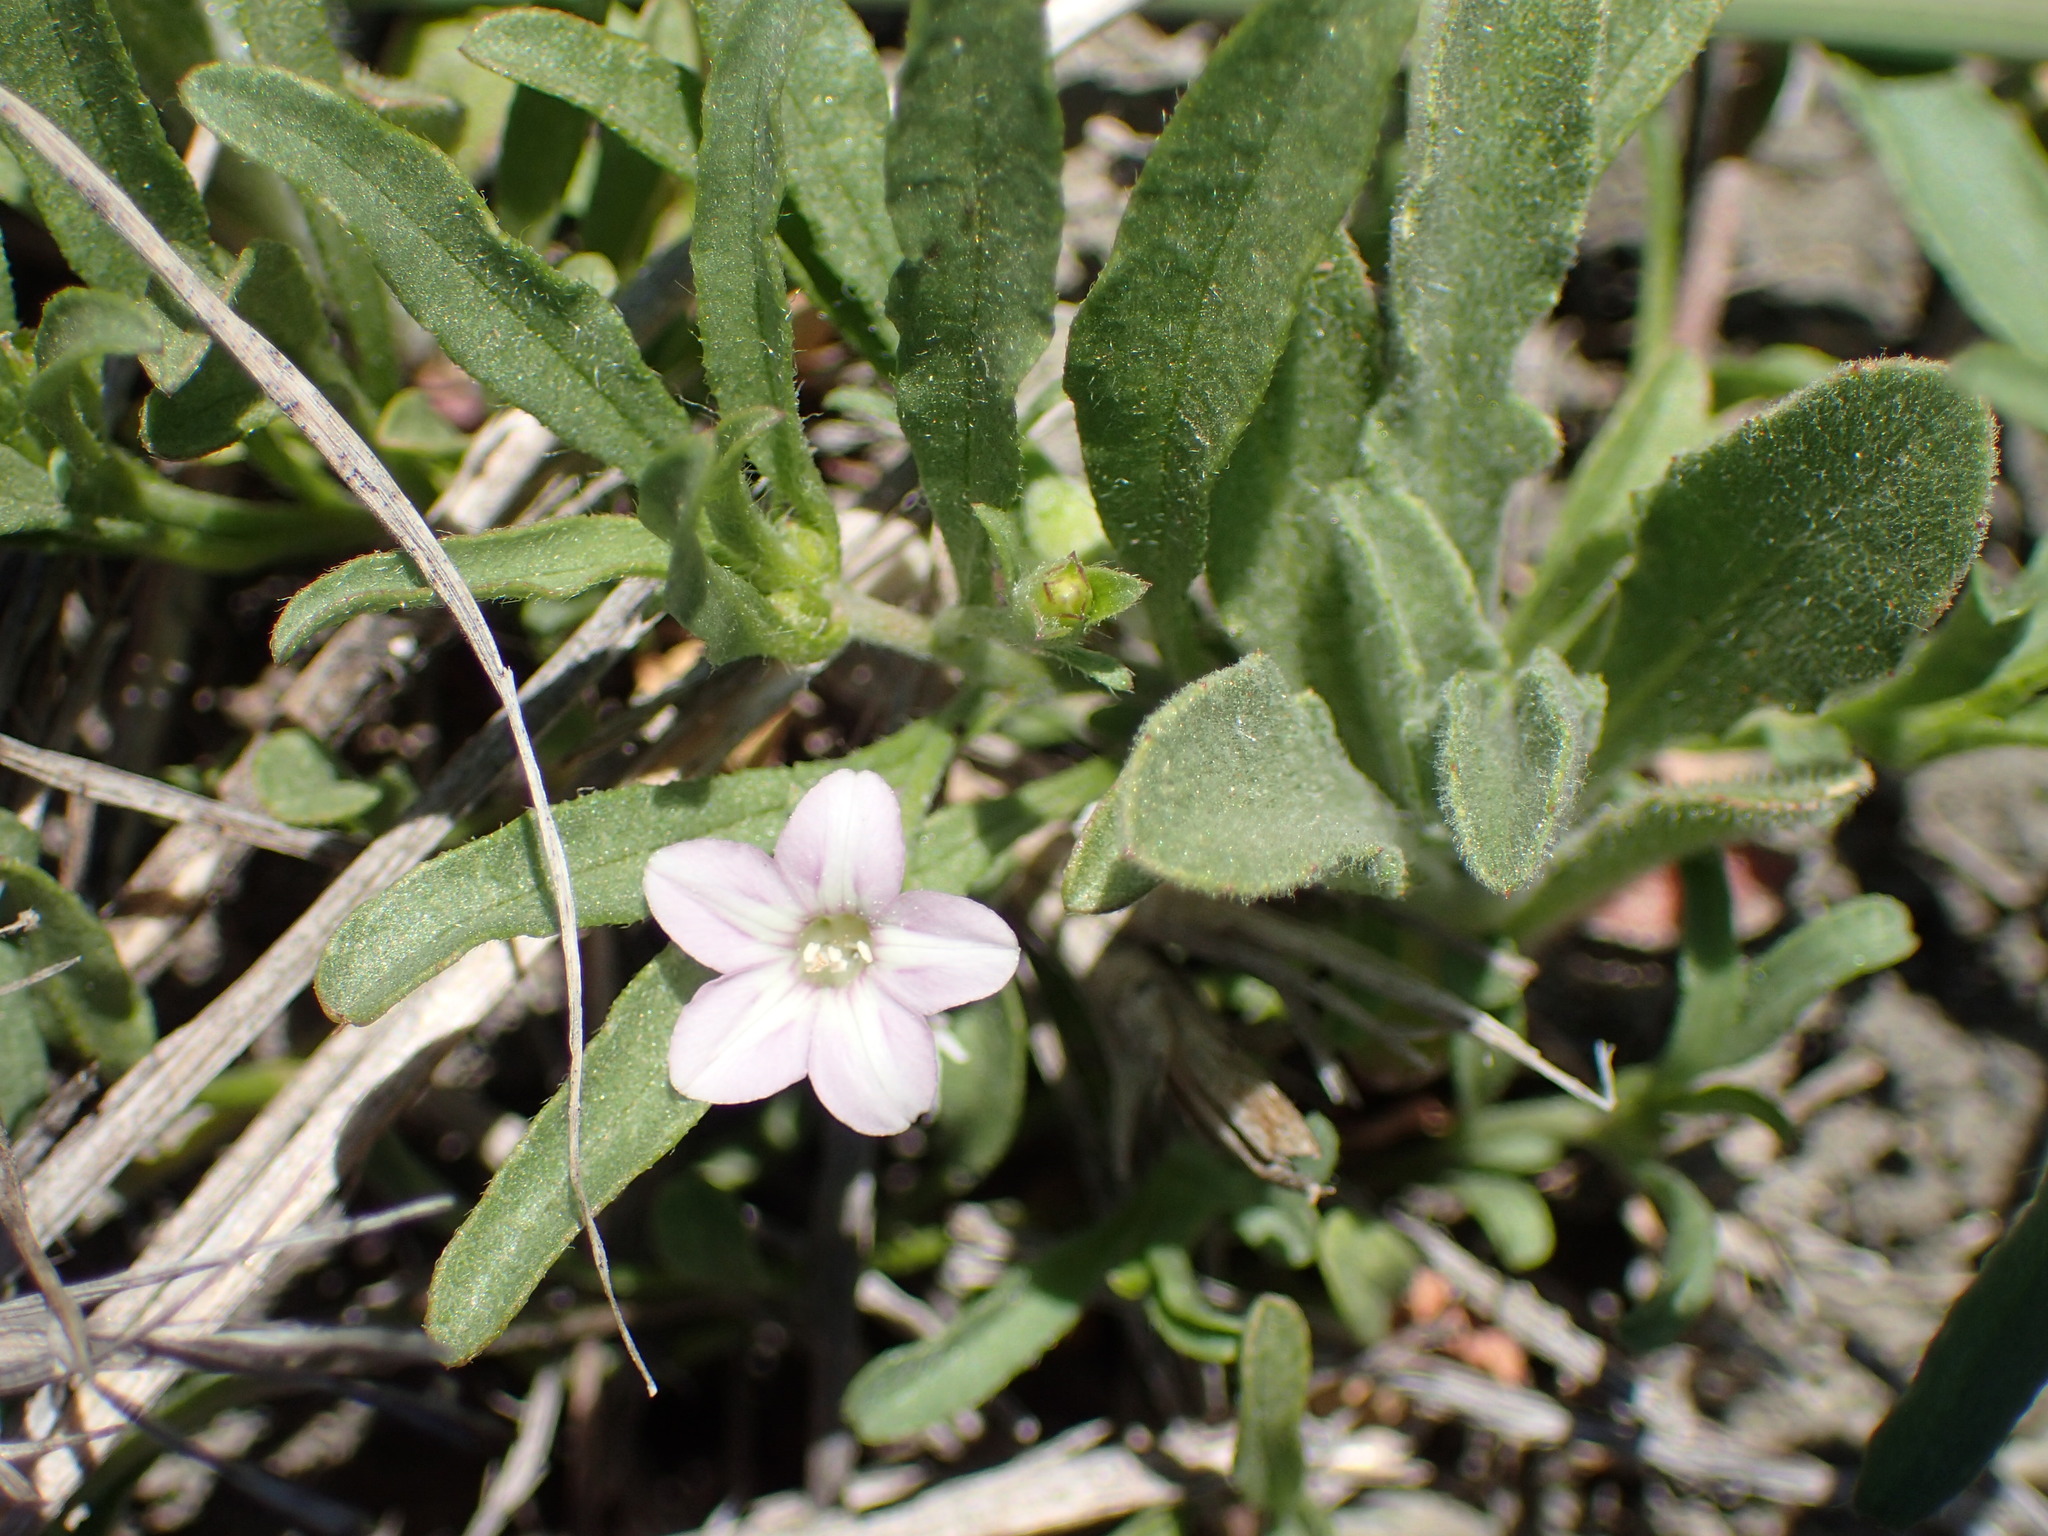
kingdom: Plantae
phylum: Tracheophyta
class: Magnoliopsida
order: Solanales
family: Convolvulaceae
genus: Convolvulus
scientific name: Convolvulus simulans
